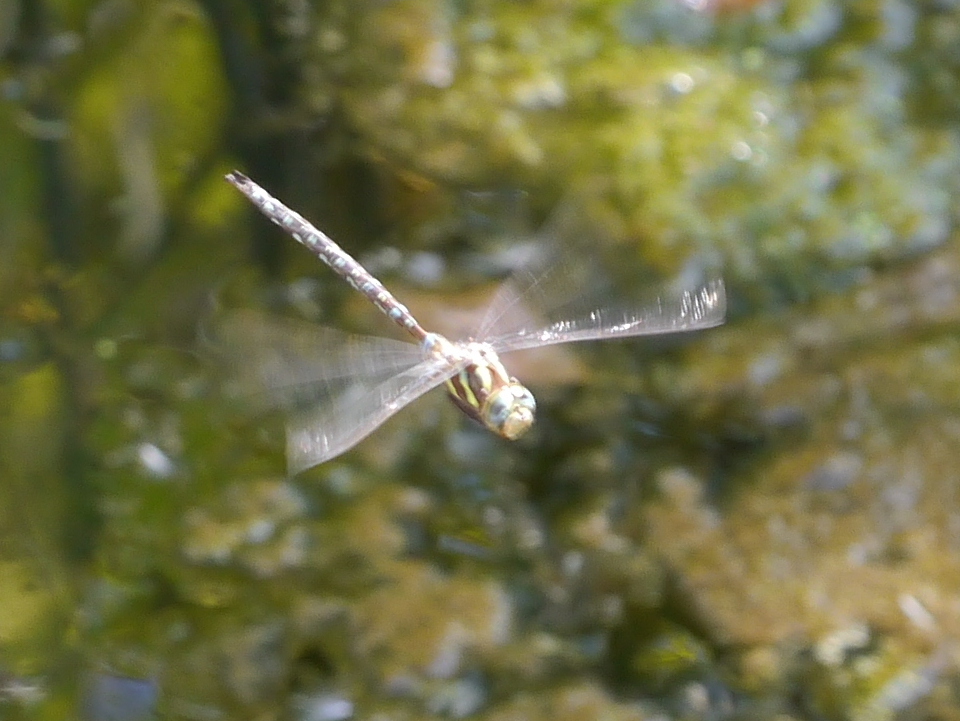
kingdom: Animalia
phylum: Arthropoda
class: Insecta
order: Odonata
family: Aeshnidae
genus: Aeshna
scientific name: Aeshna umbrosa
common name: Shadow darner
